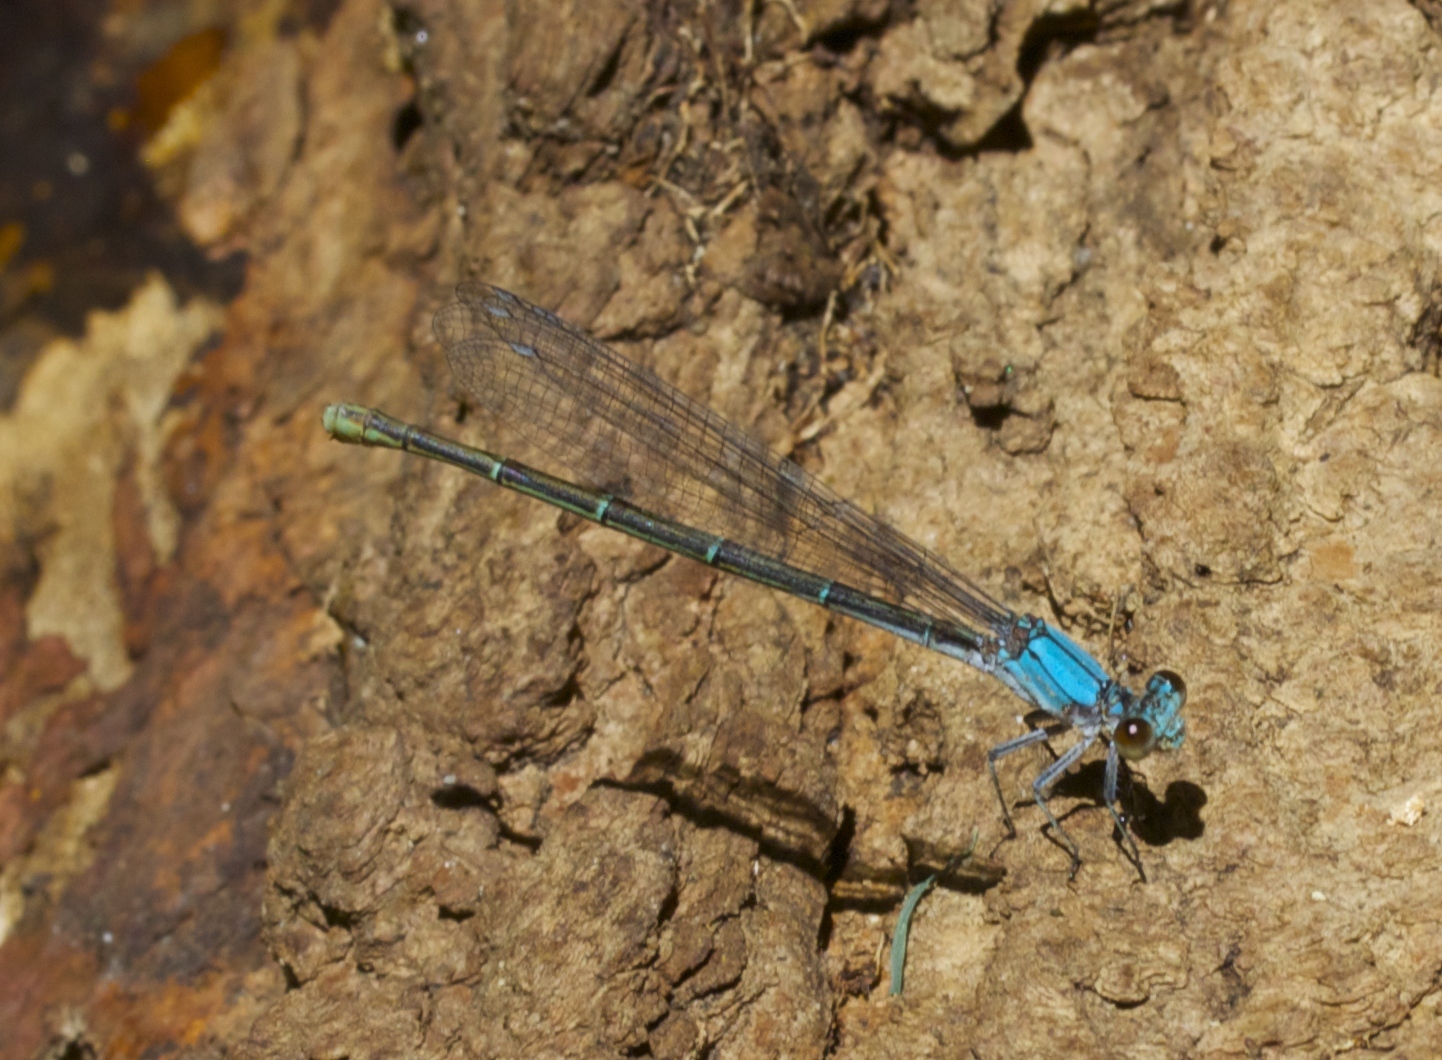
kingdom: Animalia
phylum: Arthropoda
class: Insecta
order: Odonata
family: Coenagrionidae
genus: Argia
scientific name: Argia moesta
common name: Powdered dancer
